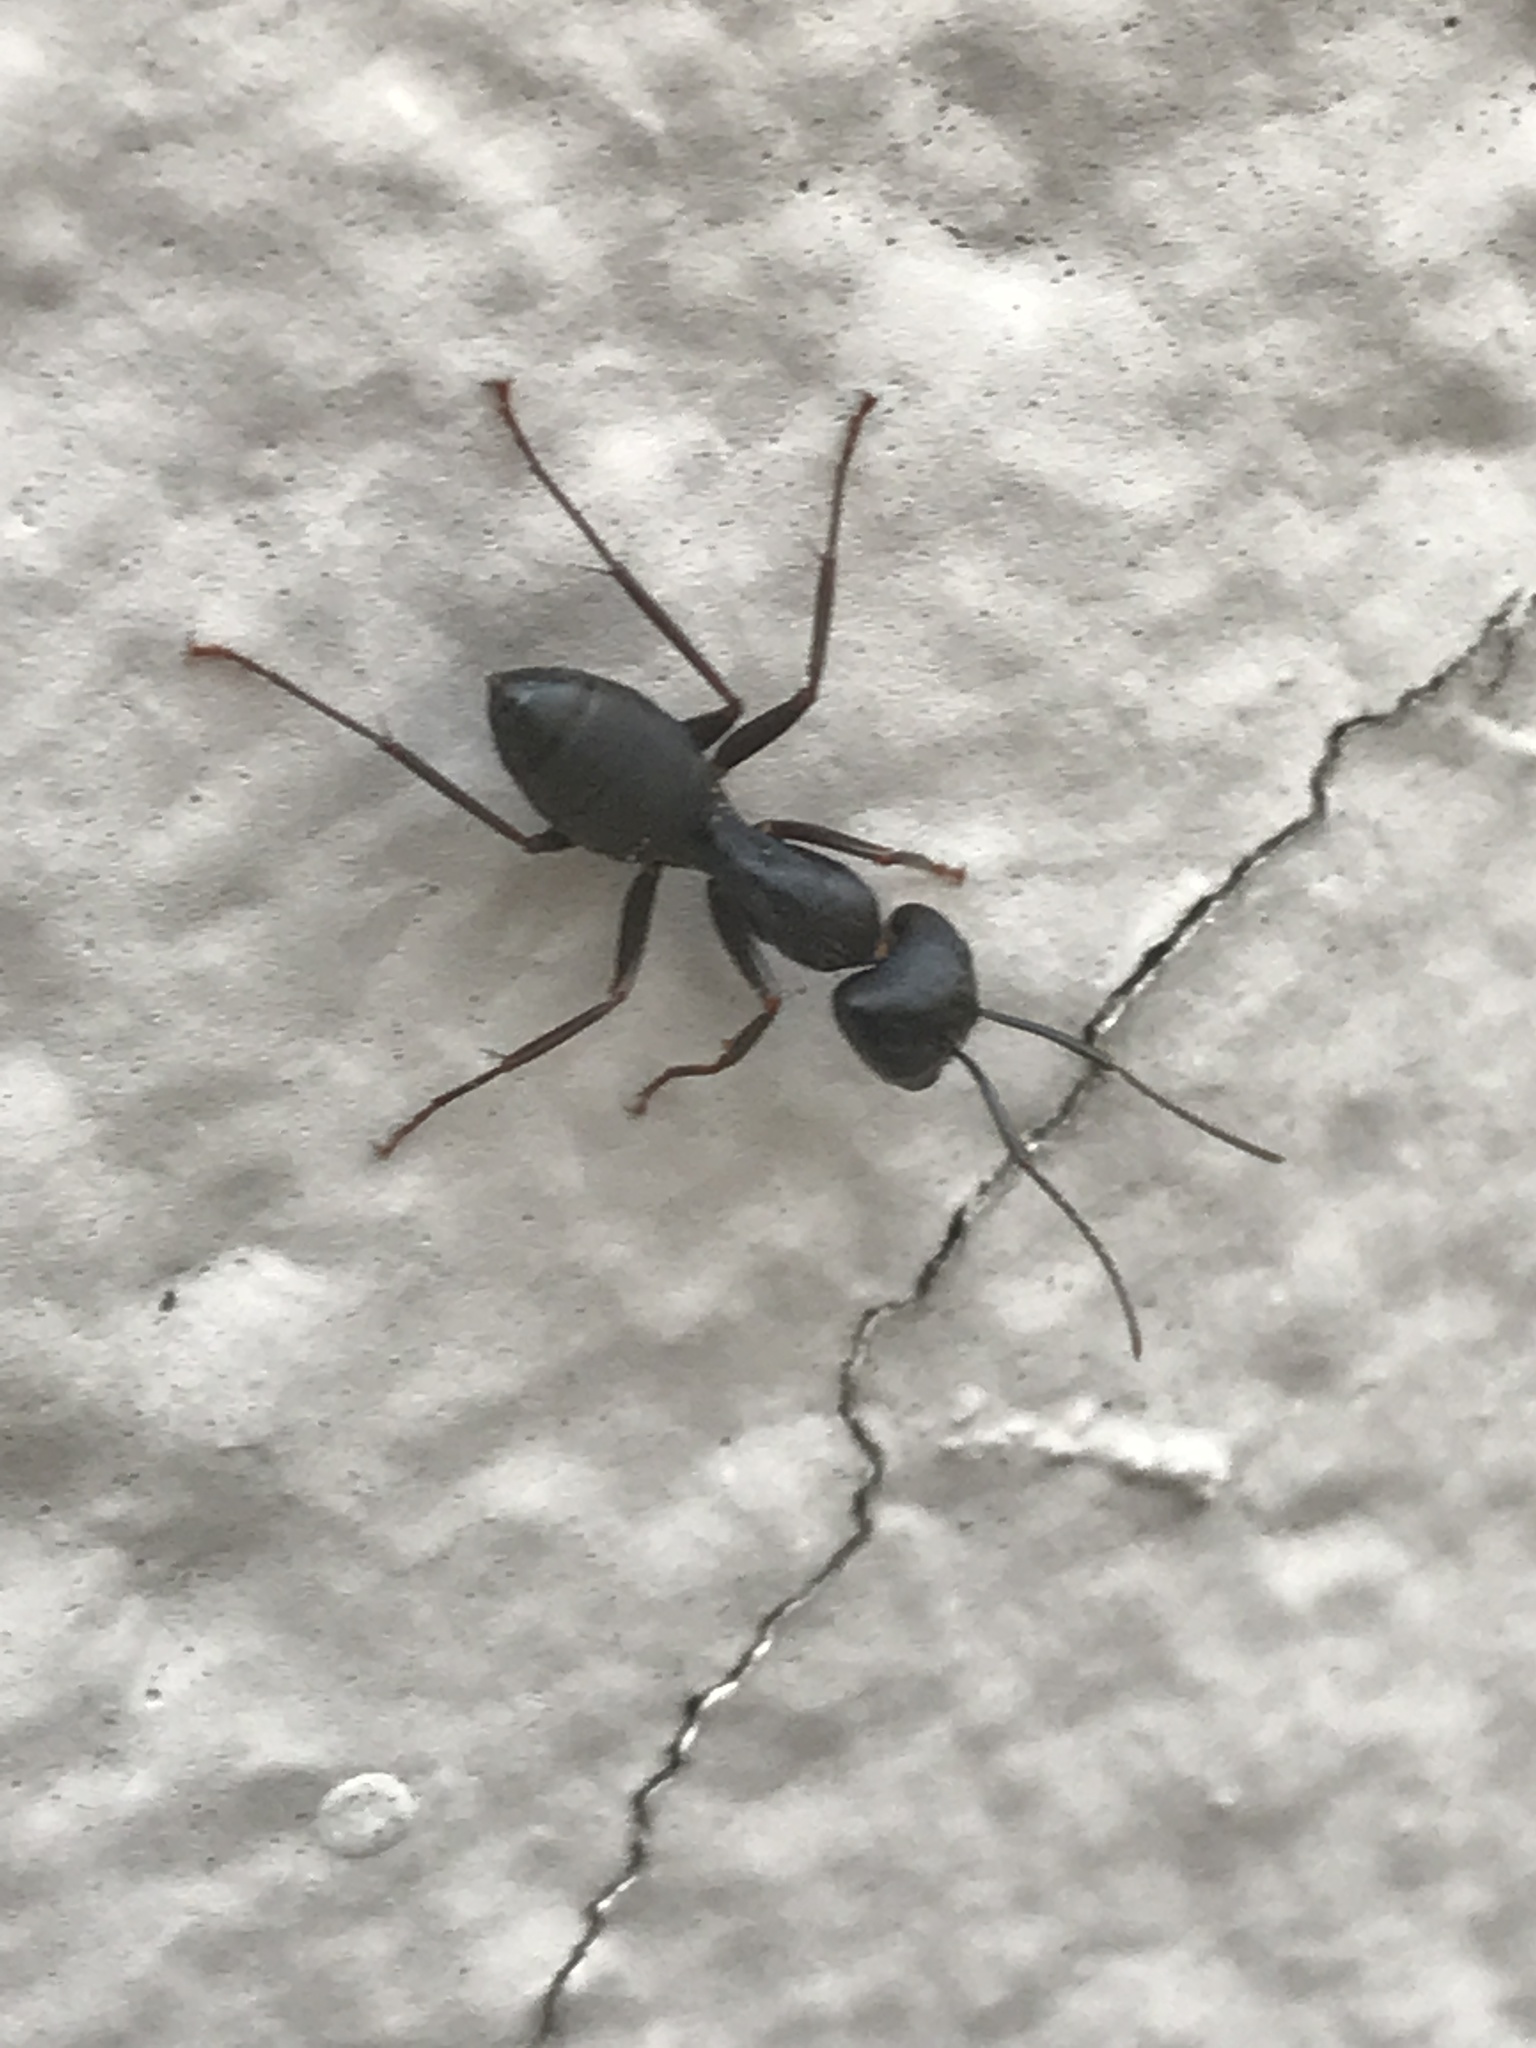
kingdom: Animalia
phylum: Arthropoda
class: Insecta
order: Hymenoptera
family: Formicidae
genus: Camponotus
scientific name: Camponotus pennsylvanicus
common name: Black carpenter ant
